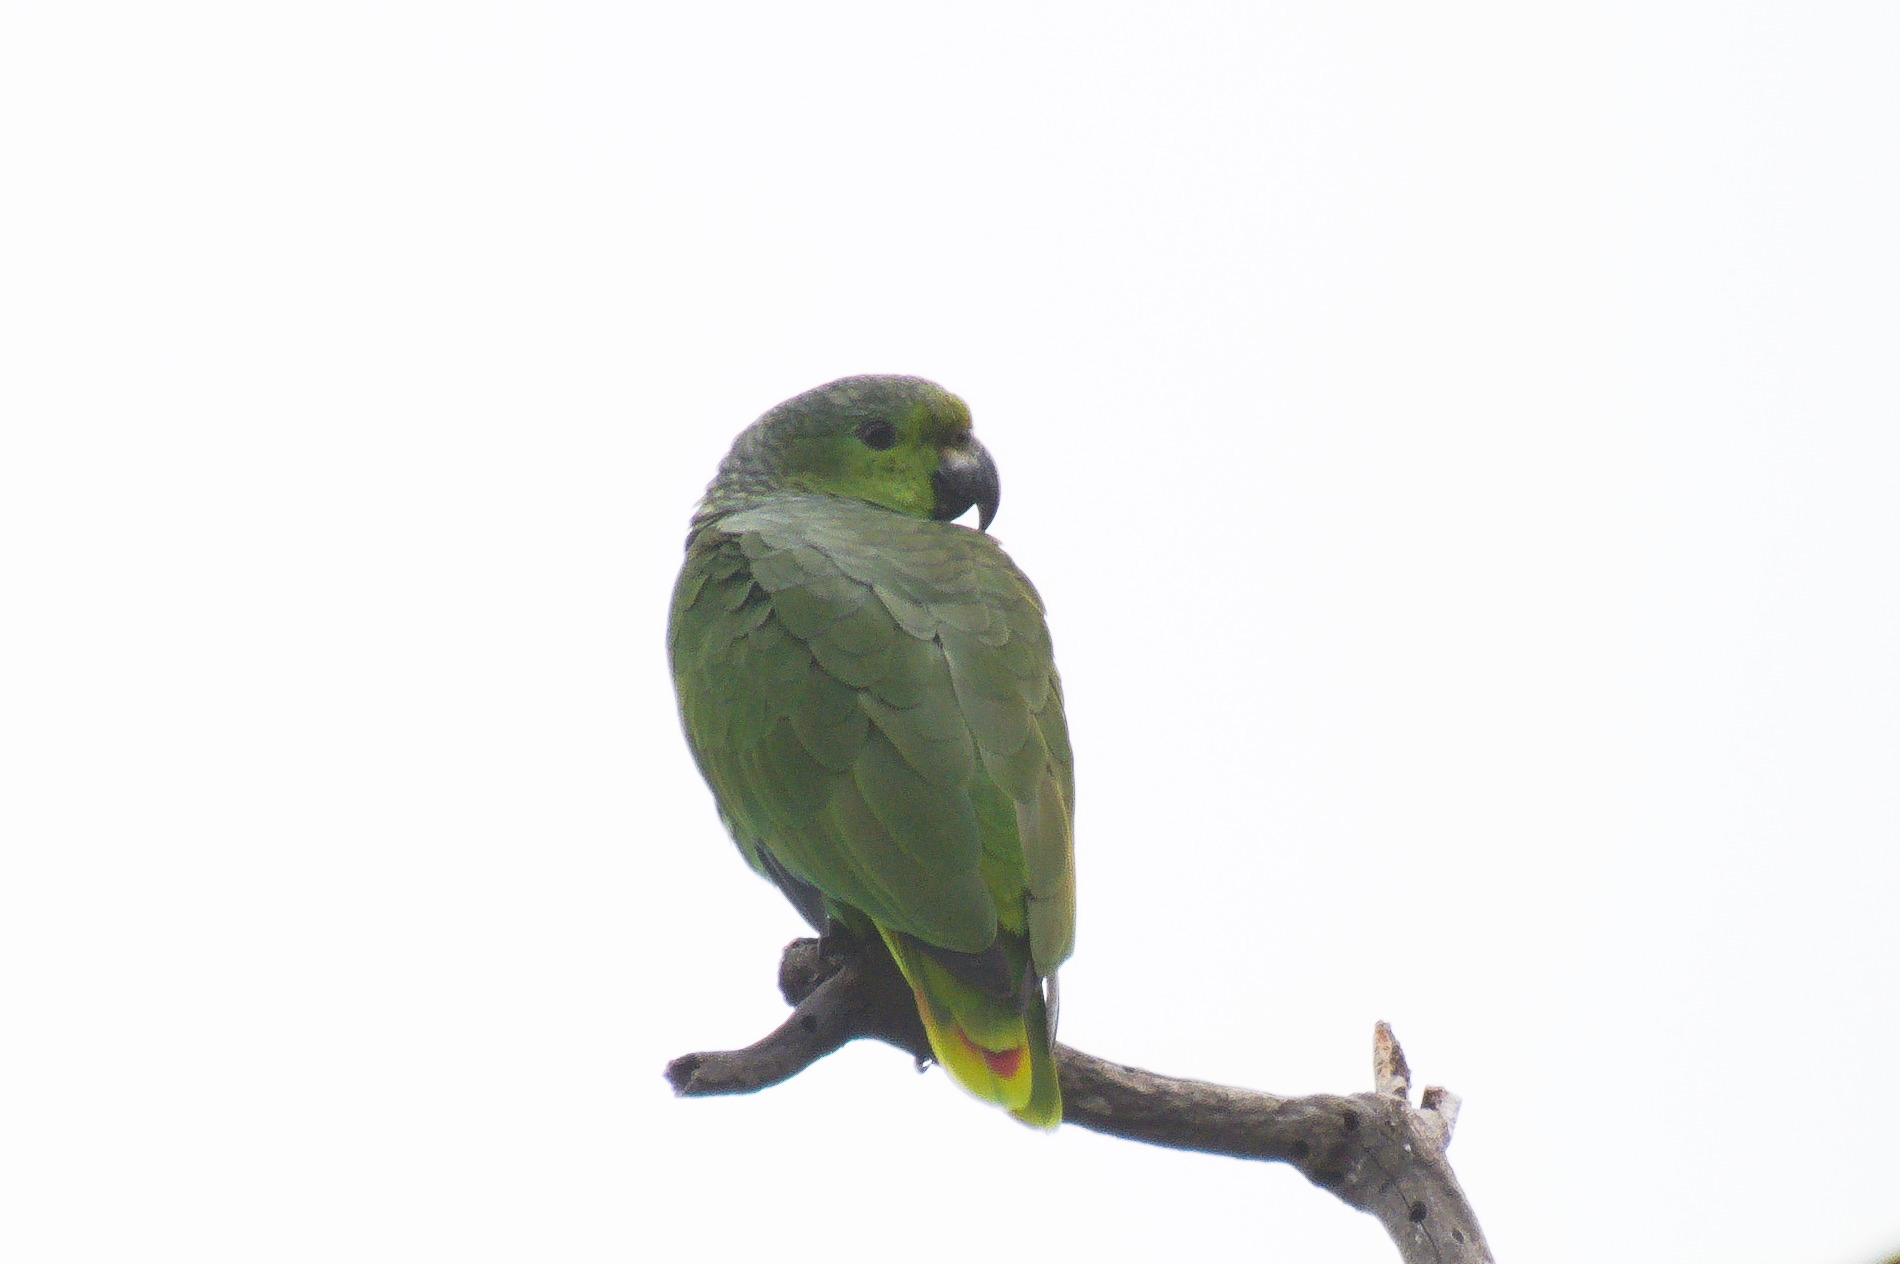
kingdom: Animalia
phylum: Chordata
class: Aves
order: Psittaciformes
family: Psittacidae
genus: Amazona
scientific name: Amazona mercenaria
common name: Scaly-naped amazon
